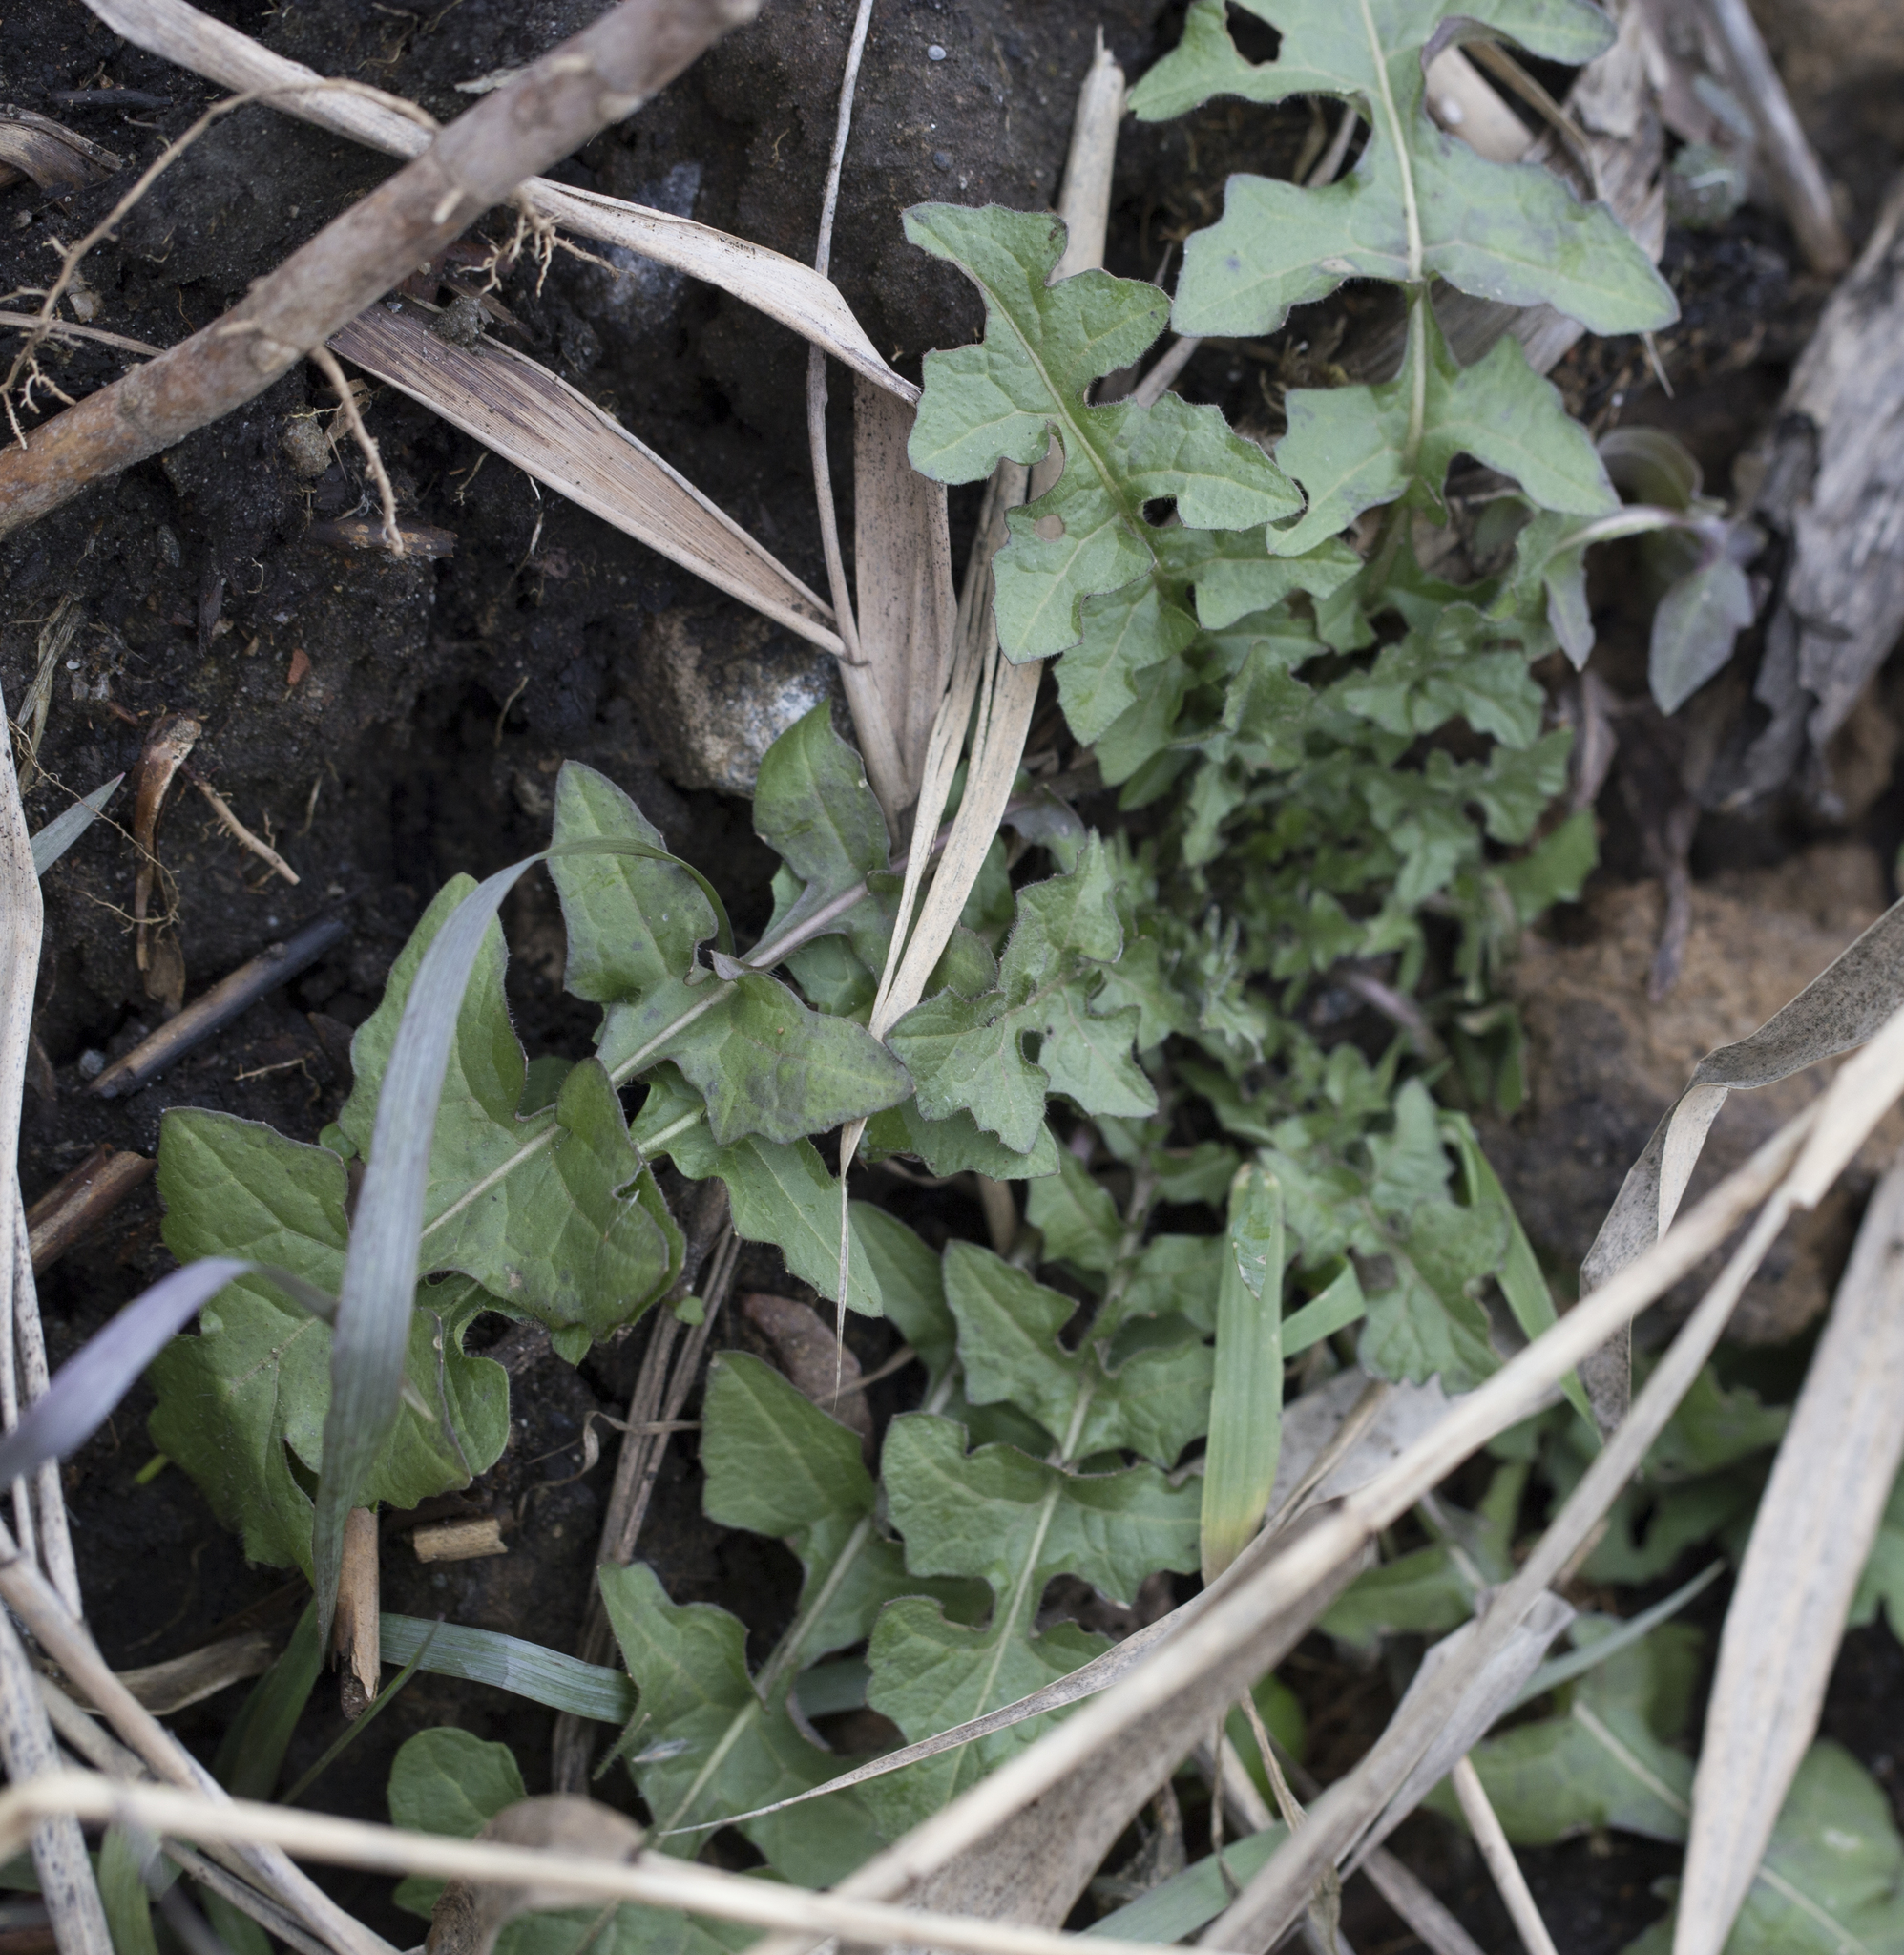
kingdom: Plantae
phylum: Tracheophyta
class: Magnoliopsida
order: Brassicales
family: Brassicaceae
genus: Sisymbrium
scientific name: Sisymbrium loeselii
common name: False london-rocket
